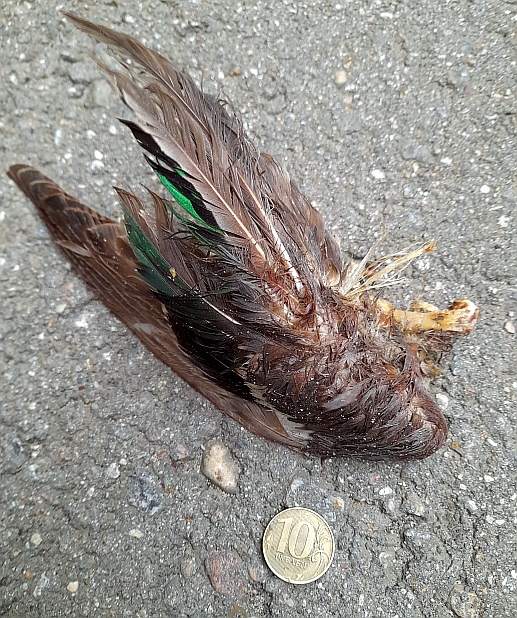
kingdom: Animalia
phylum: Chordata
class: Aves
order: Anseriformes
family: Anatidae
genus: Anas
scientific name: Anas crecca
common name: Eurasian teal
